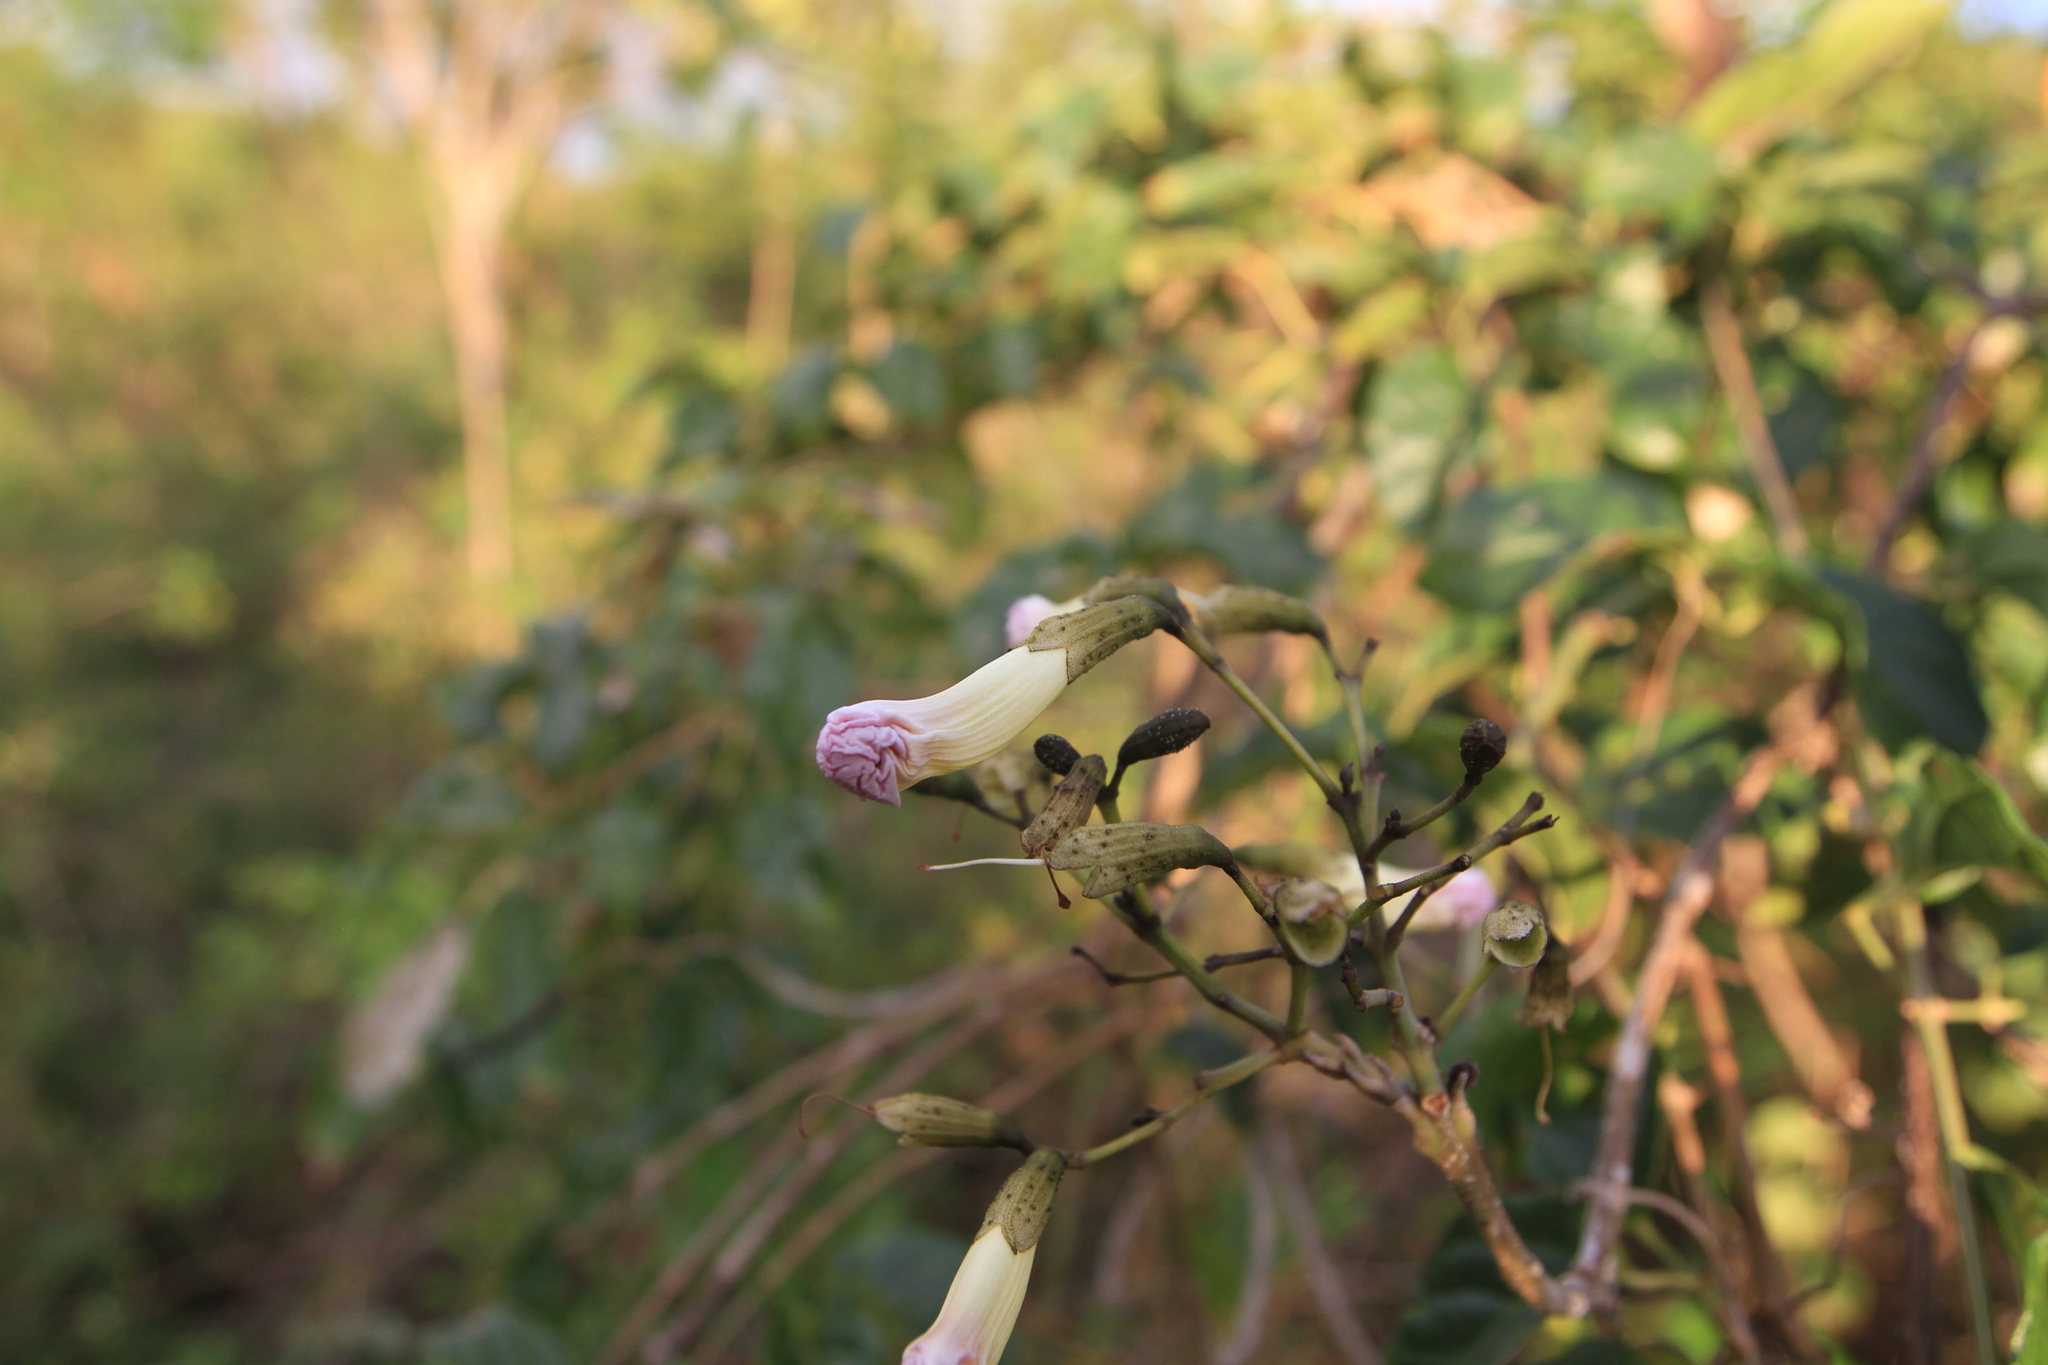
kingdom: Plantae
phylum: Tracheophyta
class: Magnoliopsida
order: Lamiales
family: Bignoniaceae
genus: Tabebuia
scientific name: Tabebuia calcicola
